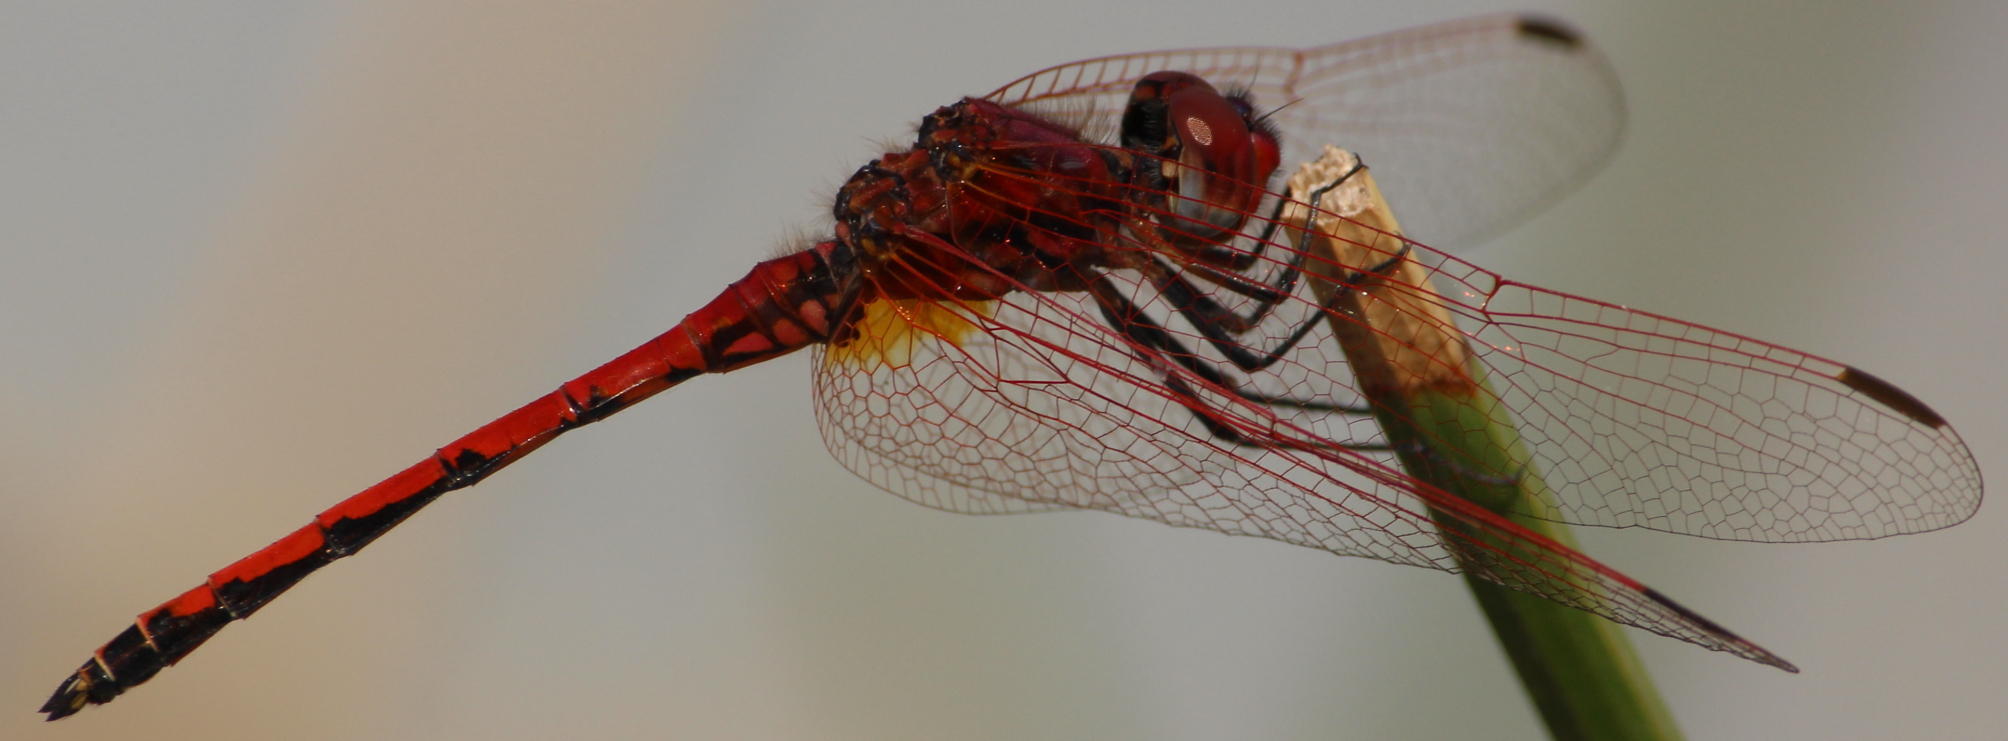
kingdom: Animalia
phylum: Arthropoda
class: Insecta
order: Odonata
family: Libellulidae
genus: Trithemis
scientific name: Trithemis arteriosa
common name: Red-veined dropwing
